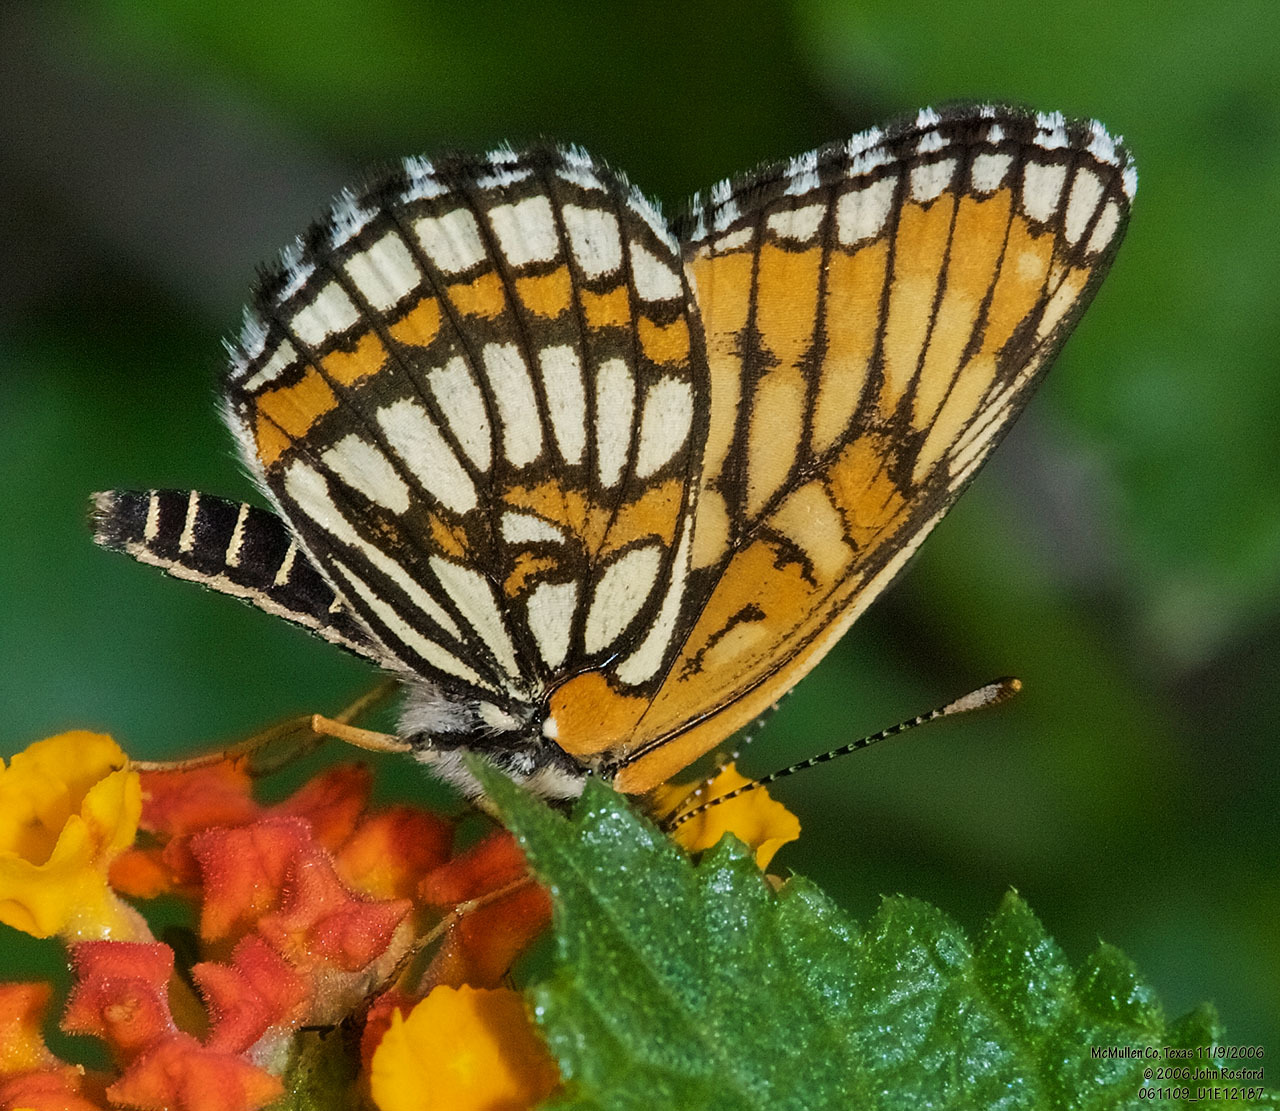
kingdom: Animalia
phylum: Arthropoda
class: Insecta
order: Lepidoptera
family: Nymphalidae
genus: Thessalia
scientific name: Thessalia theona
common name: Nymphalid moth
